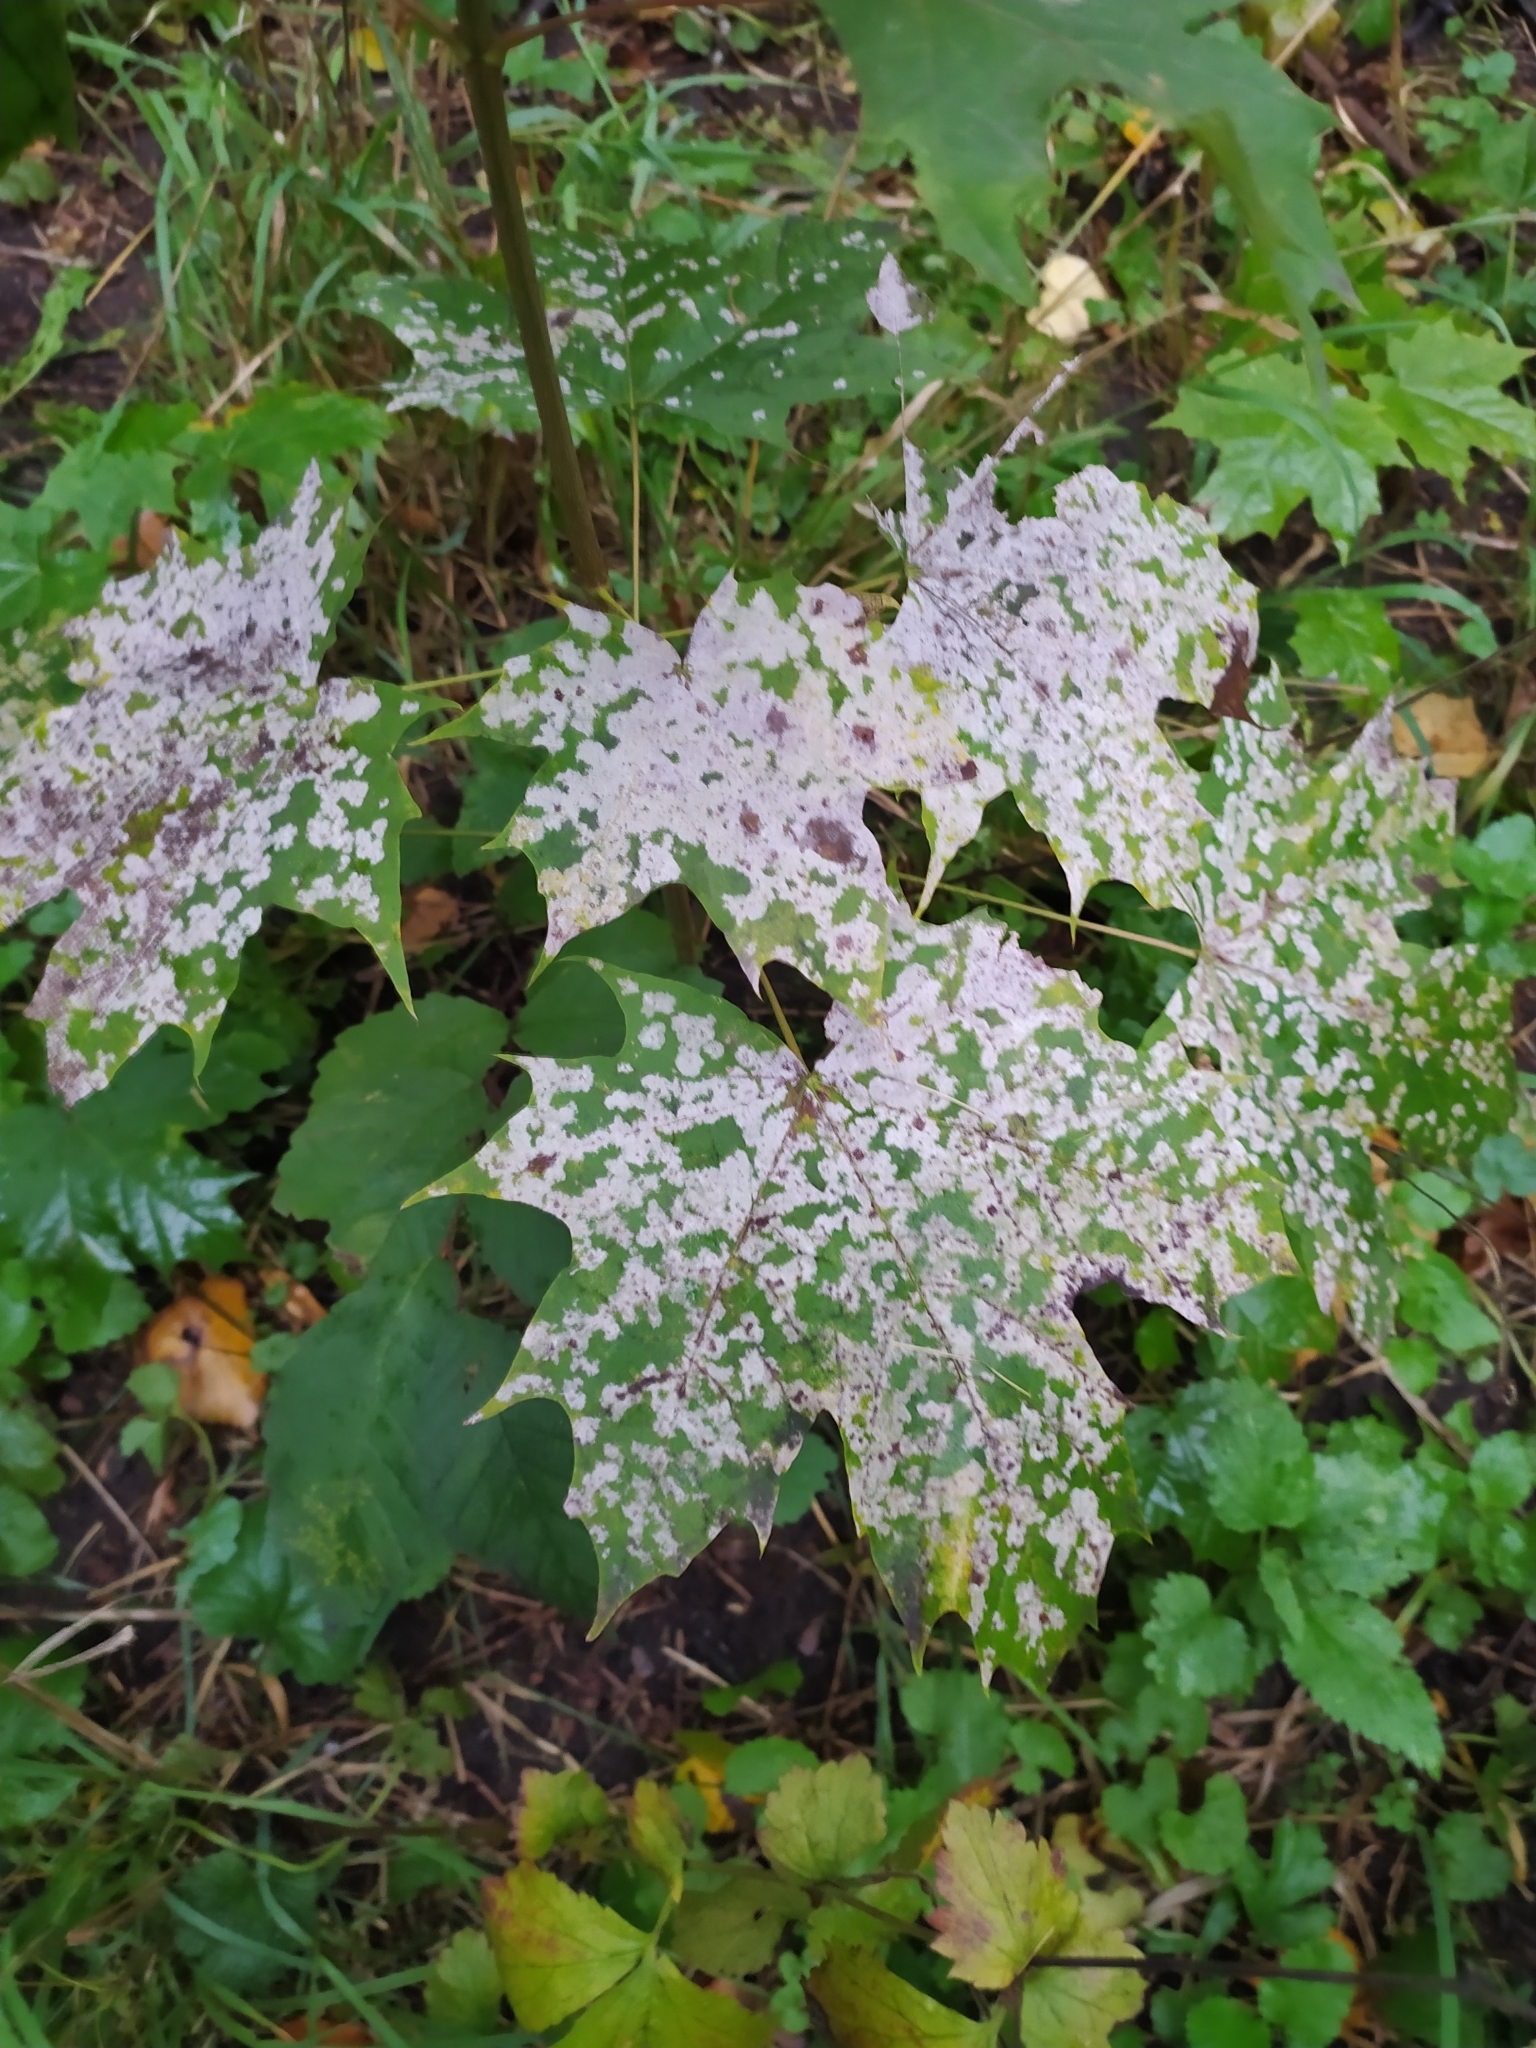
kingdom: Fungi
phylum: Ascomycota
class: Leotiomycetes
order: Helotiales
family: Erysiphaceae
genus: Sawadaea
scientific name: Sawadaea tulasnei
